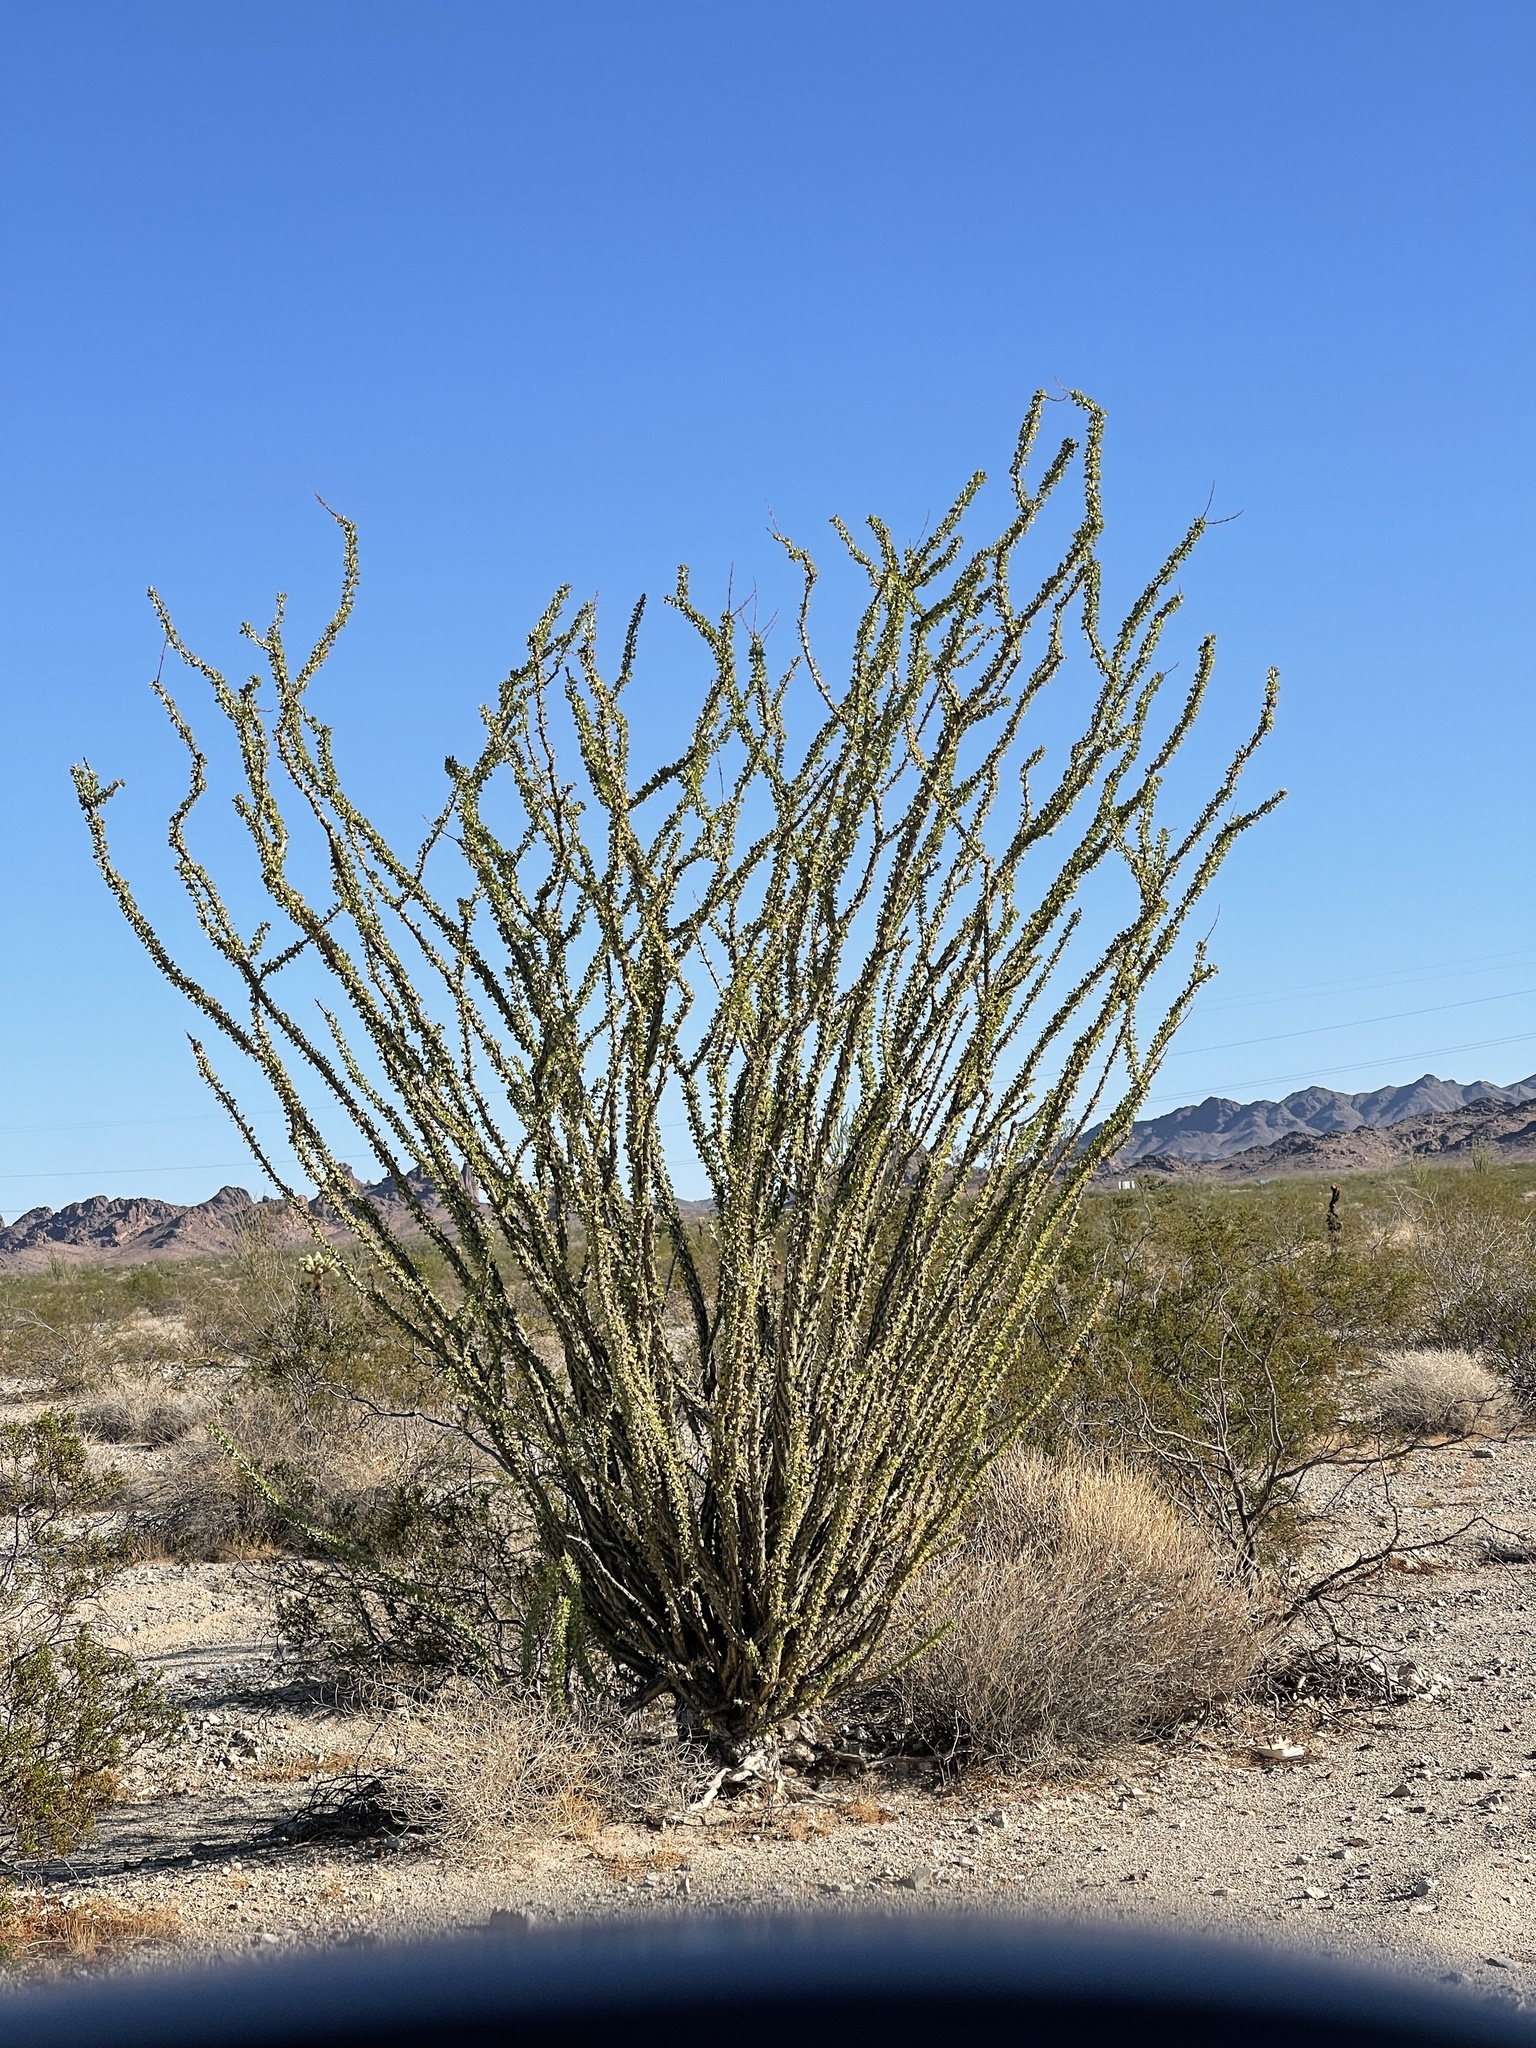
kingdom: Plantae
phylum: Tracheophyta
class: Magnoliopsida
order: Ericales
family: Fouquieriaceae
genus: Fouquieria
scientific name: Fouquieria splendens
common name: Vine-cactus
